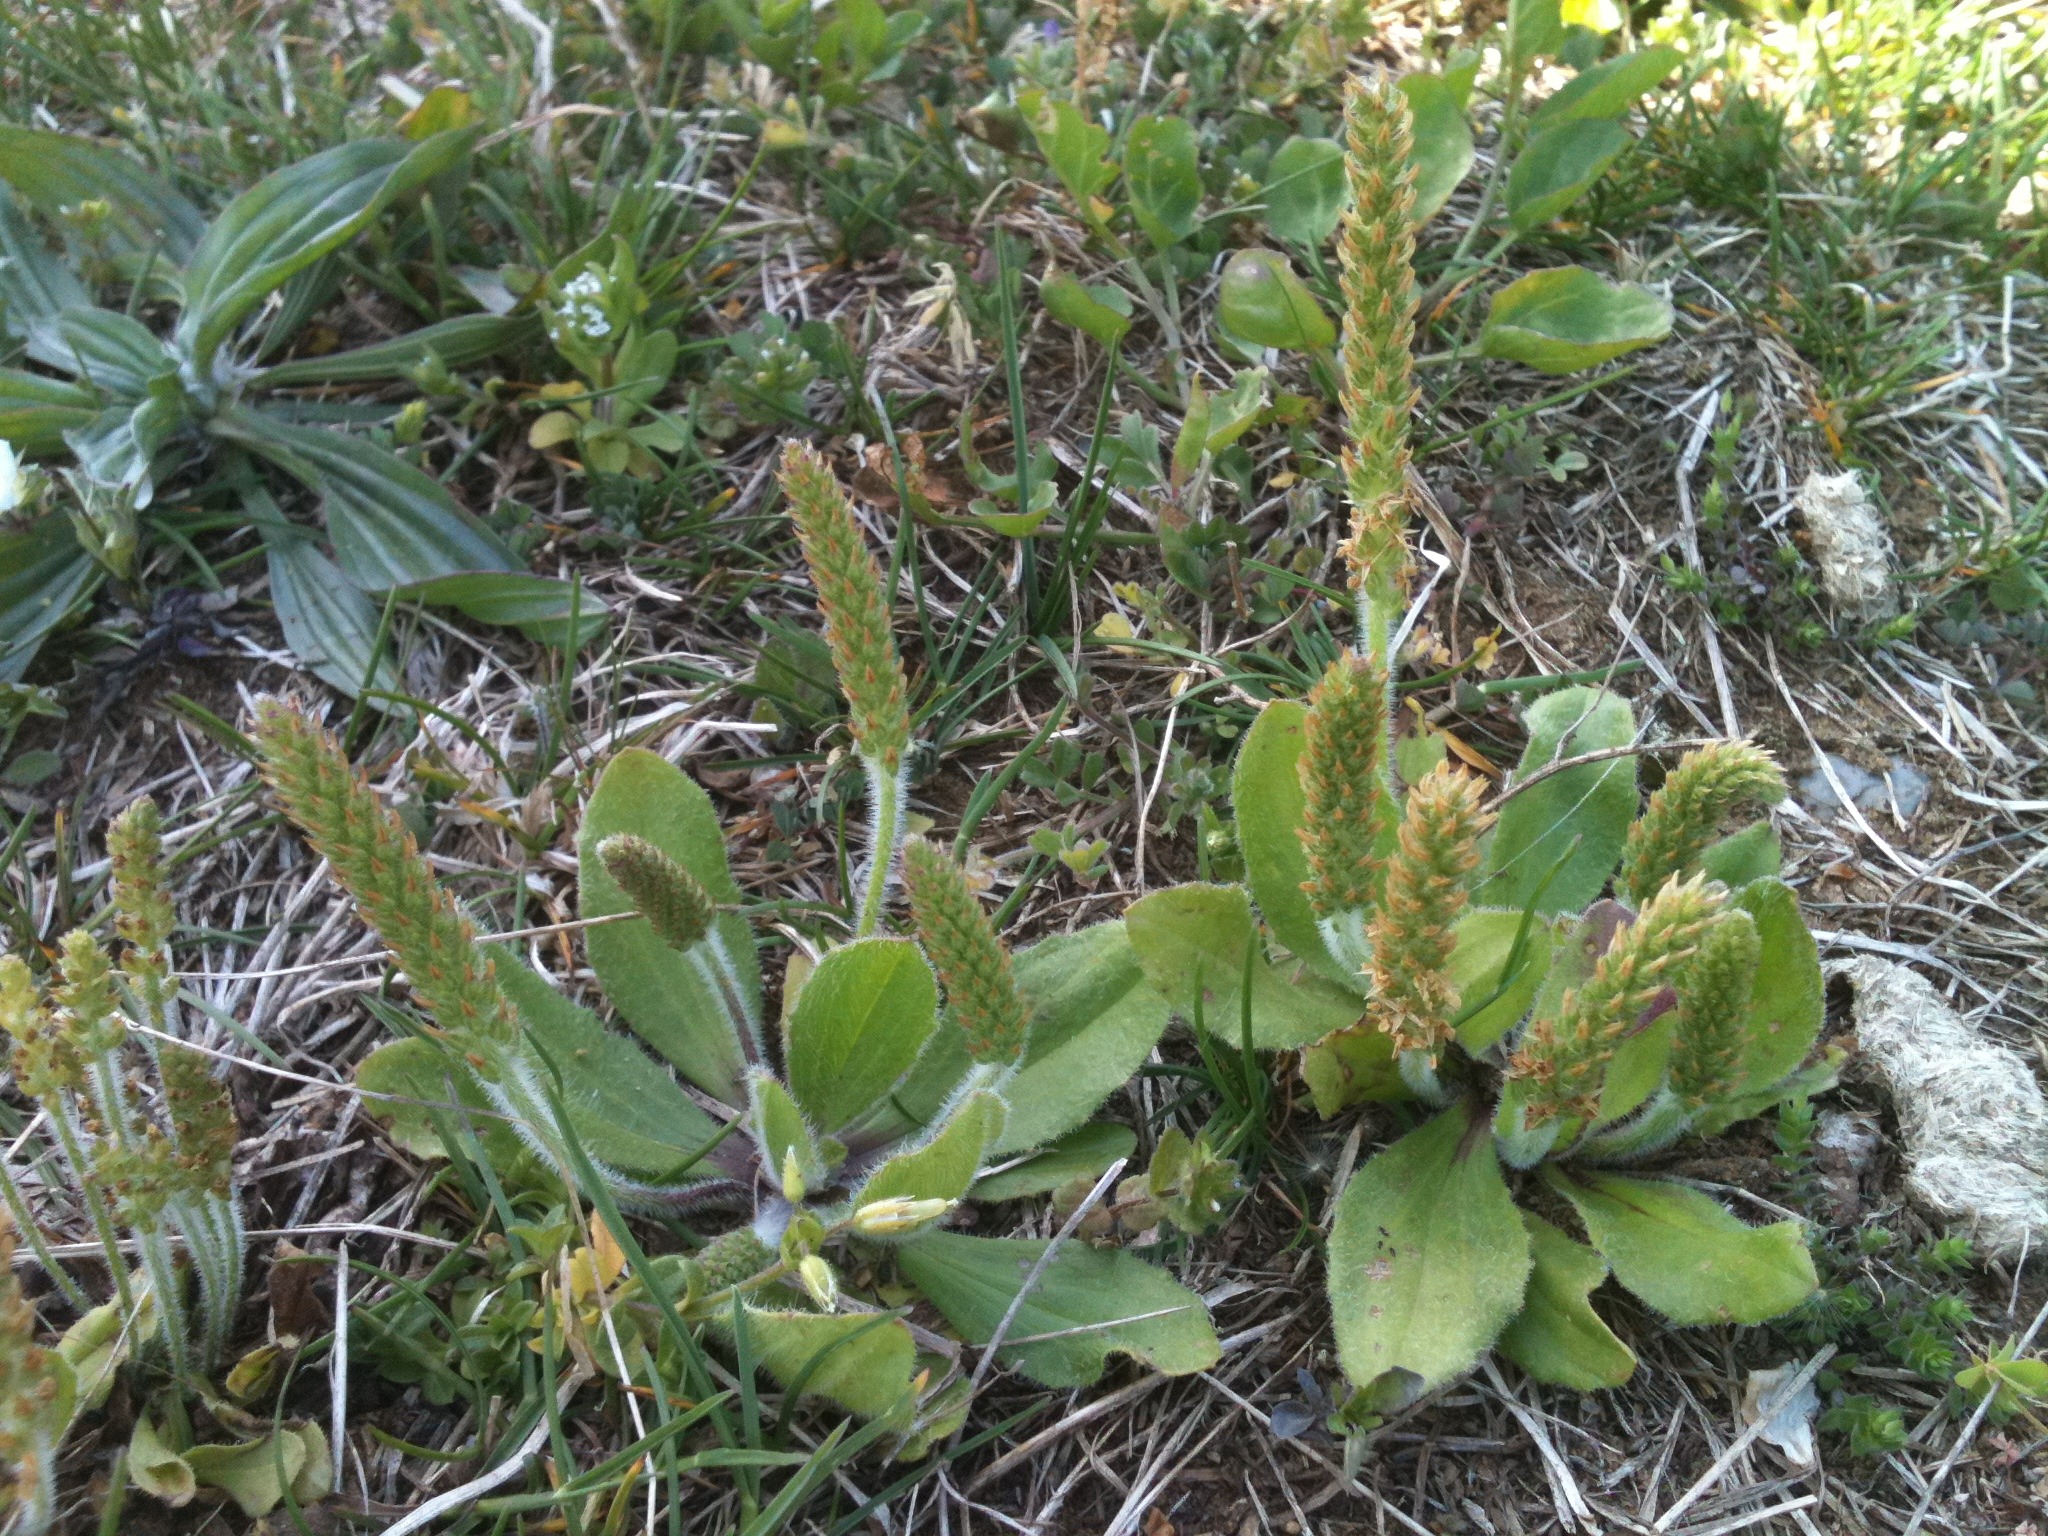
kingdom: Plantae
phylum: Tracheophyta
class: Magnoliopsida
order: Lamiales
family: Plantaginaceae
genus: Plantago
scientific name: Plantago virginica
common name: Hoary plantain
